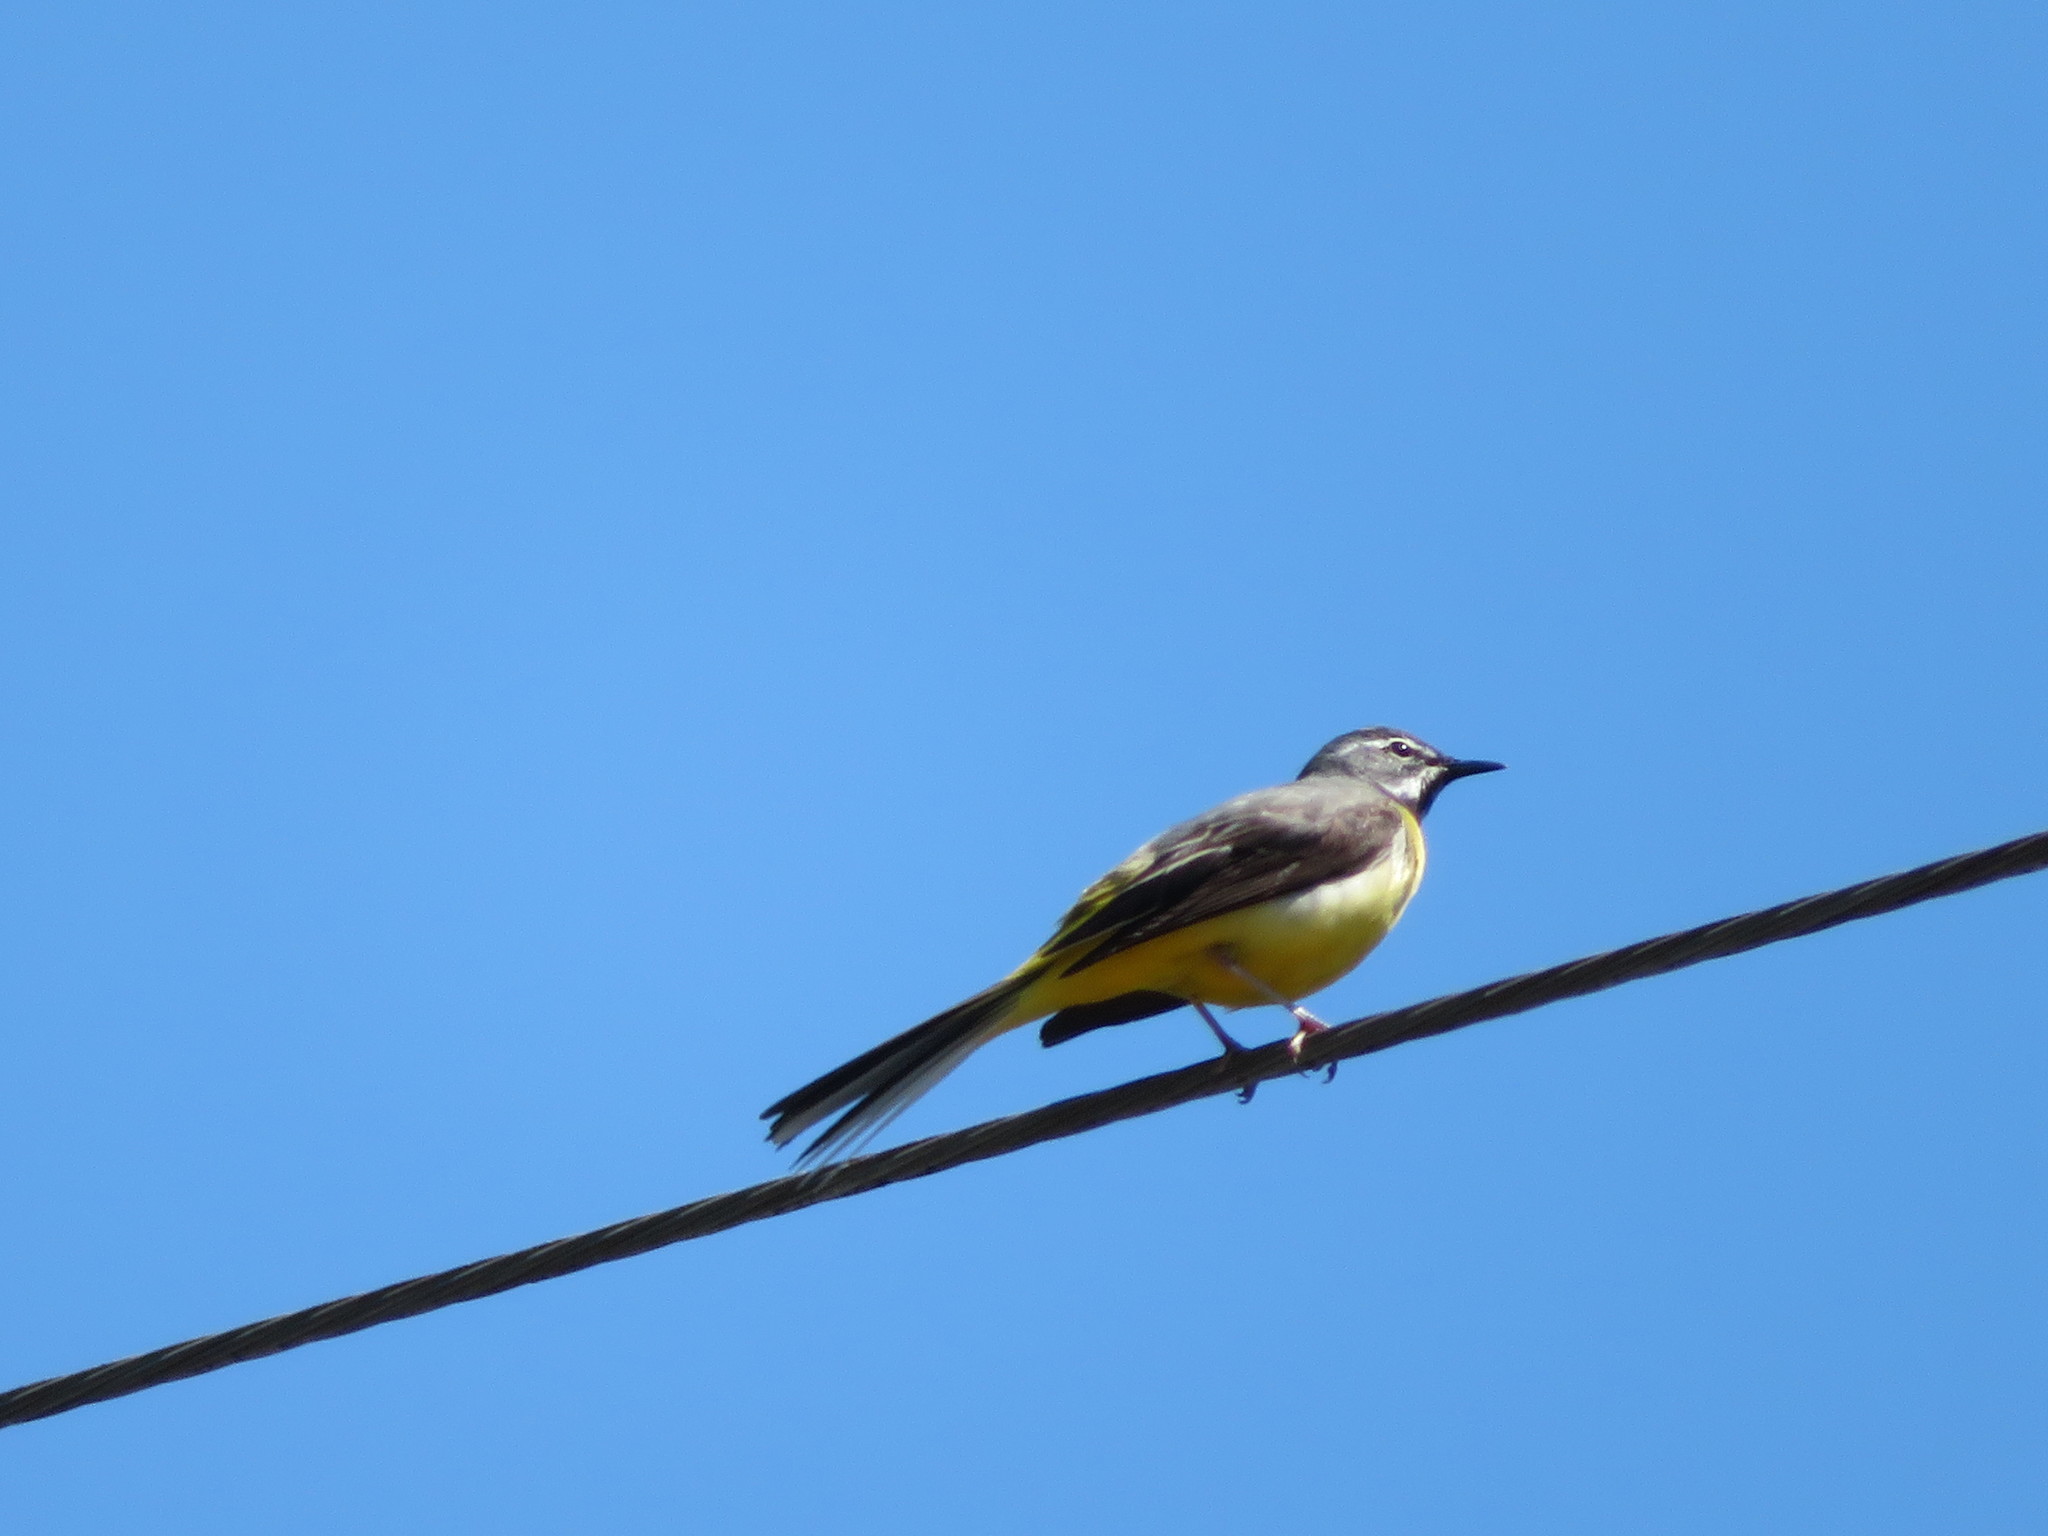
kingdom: Animalia
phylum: Chordata
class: Aves
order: Passeriformes
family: Motacillidae
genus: Motacilla
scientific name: Motacilla cinerea
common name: Grey wagtail
